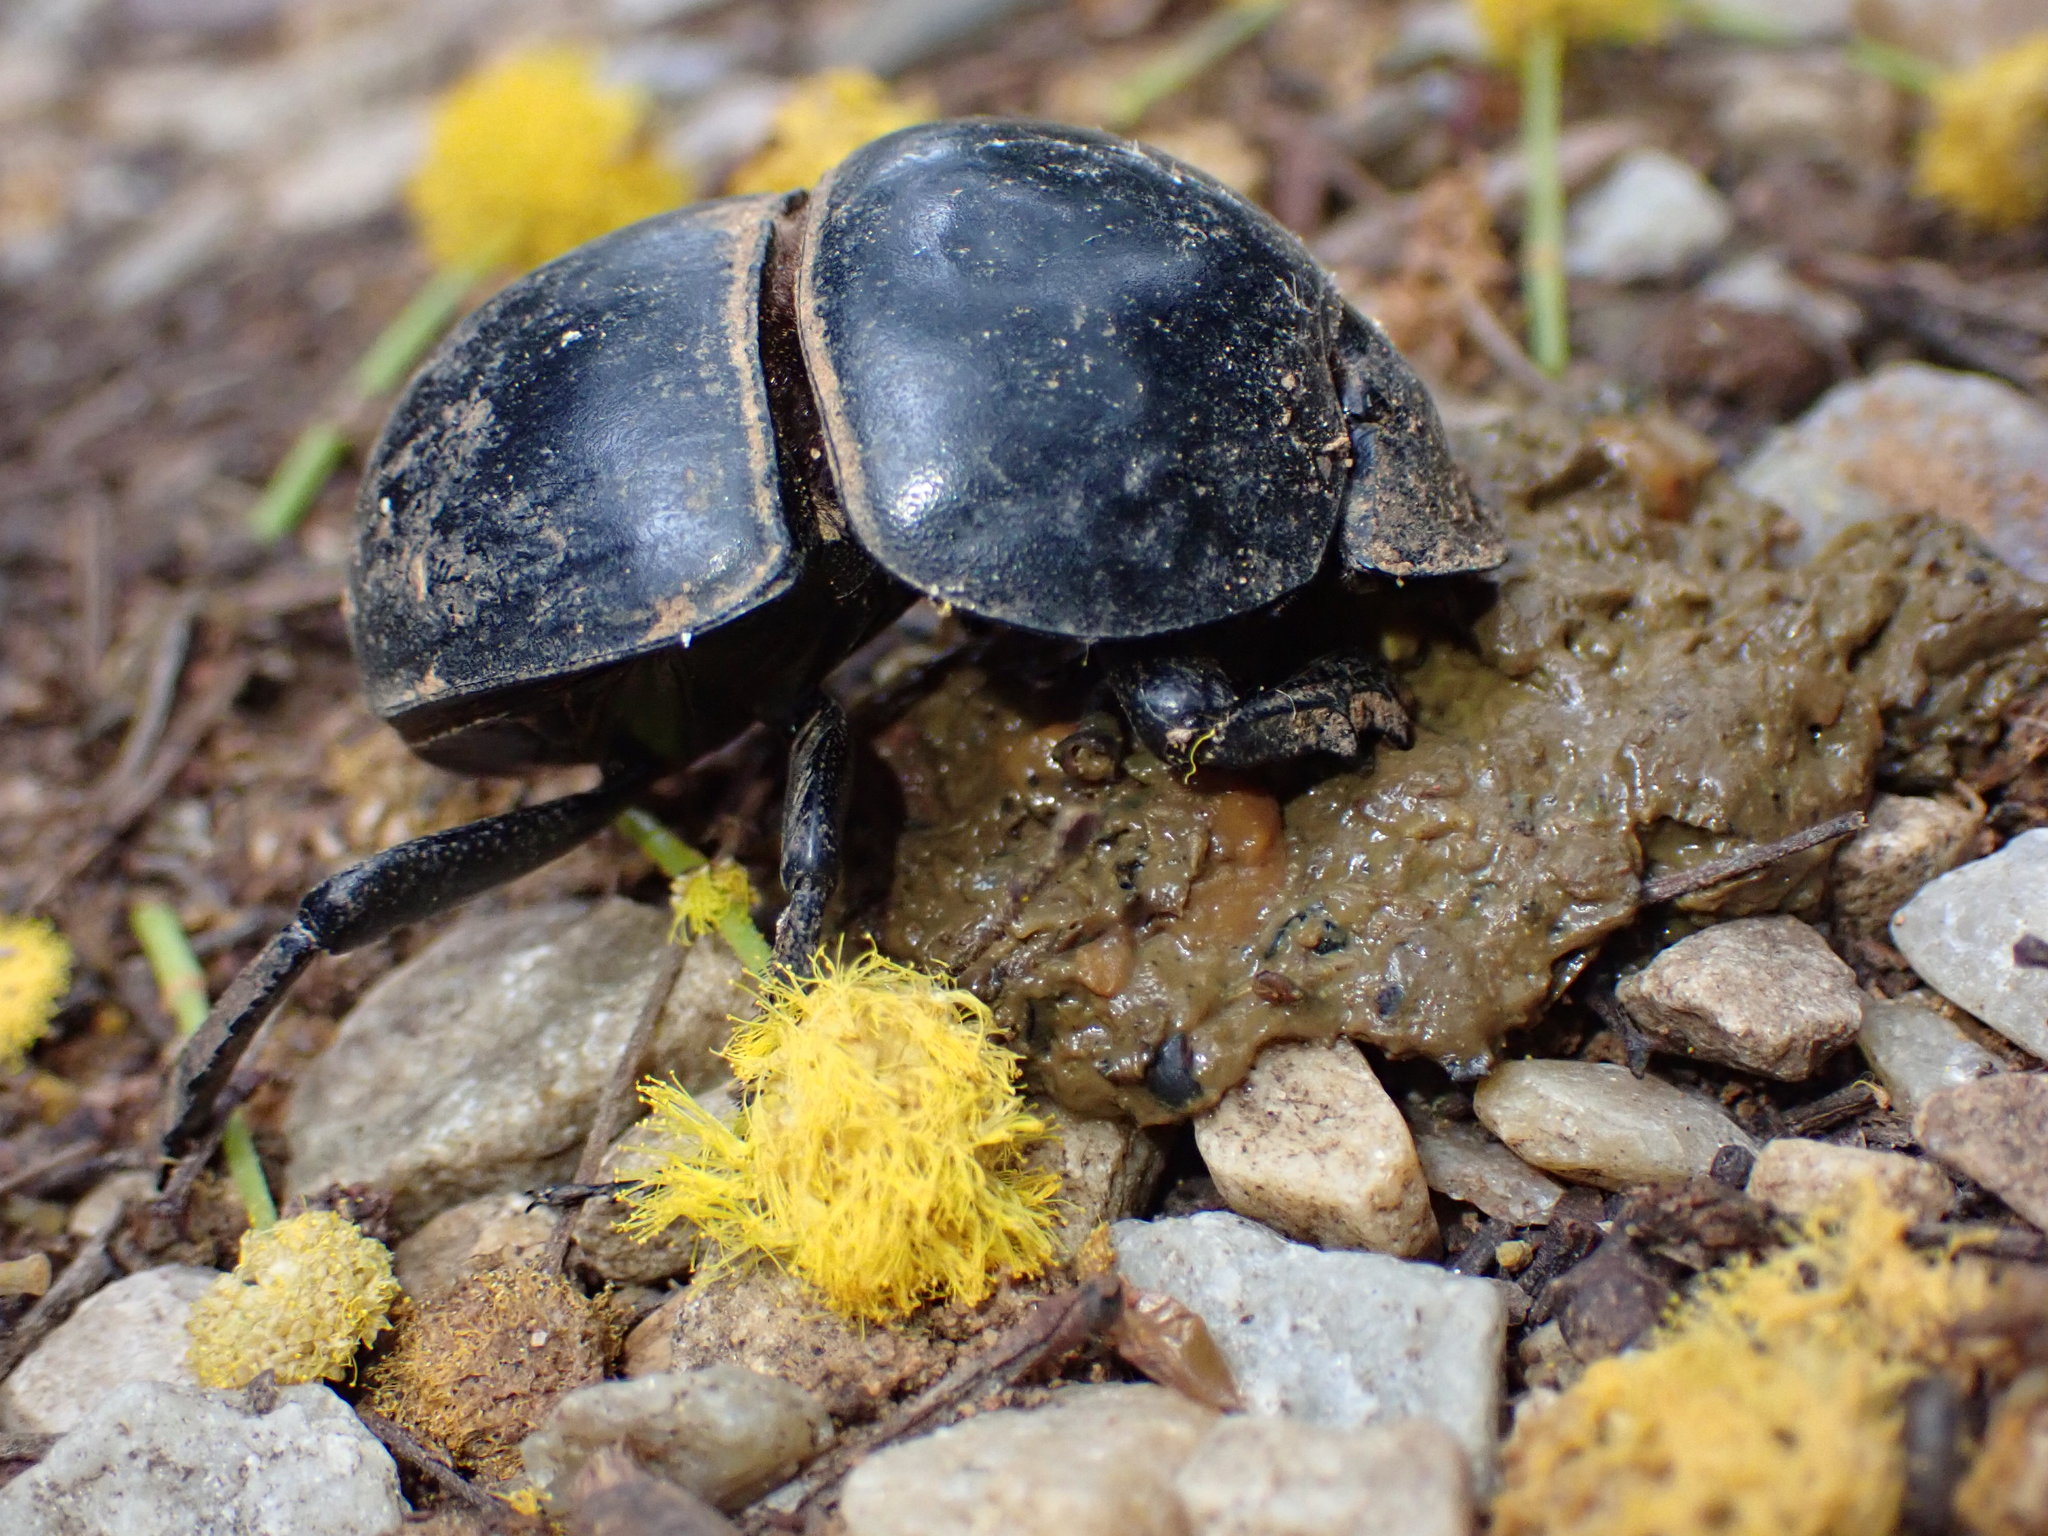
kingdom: Animalia
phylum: Arthropoda
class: Insecta
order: Coleoptera
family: Scarabaeidae
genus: Circellium
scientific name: Circellium bacchus
